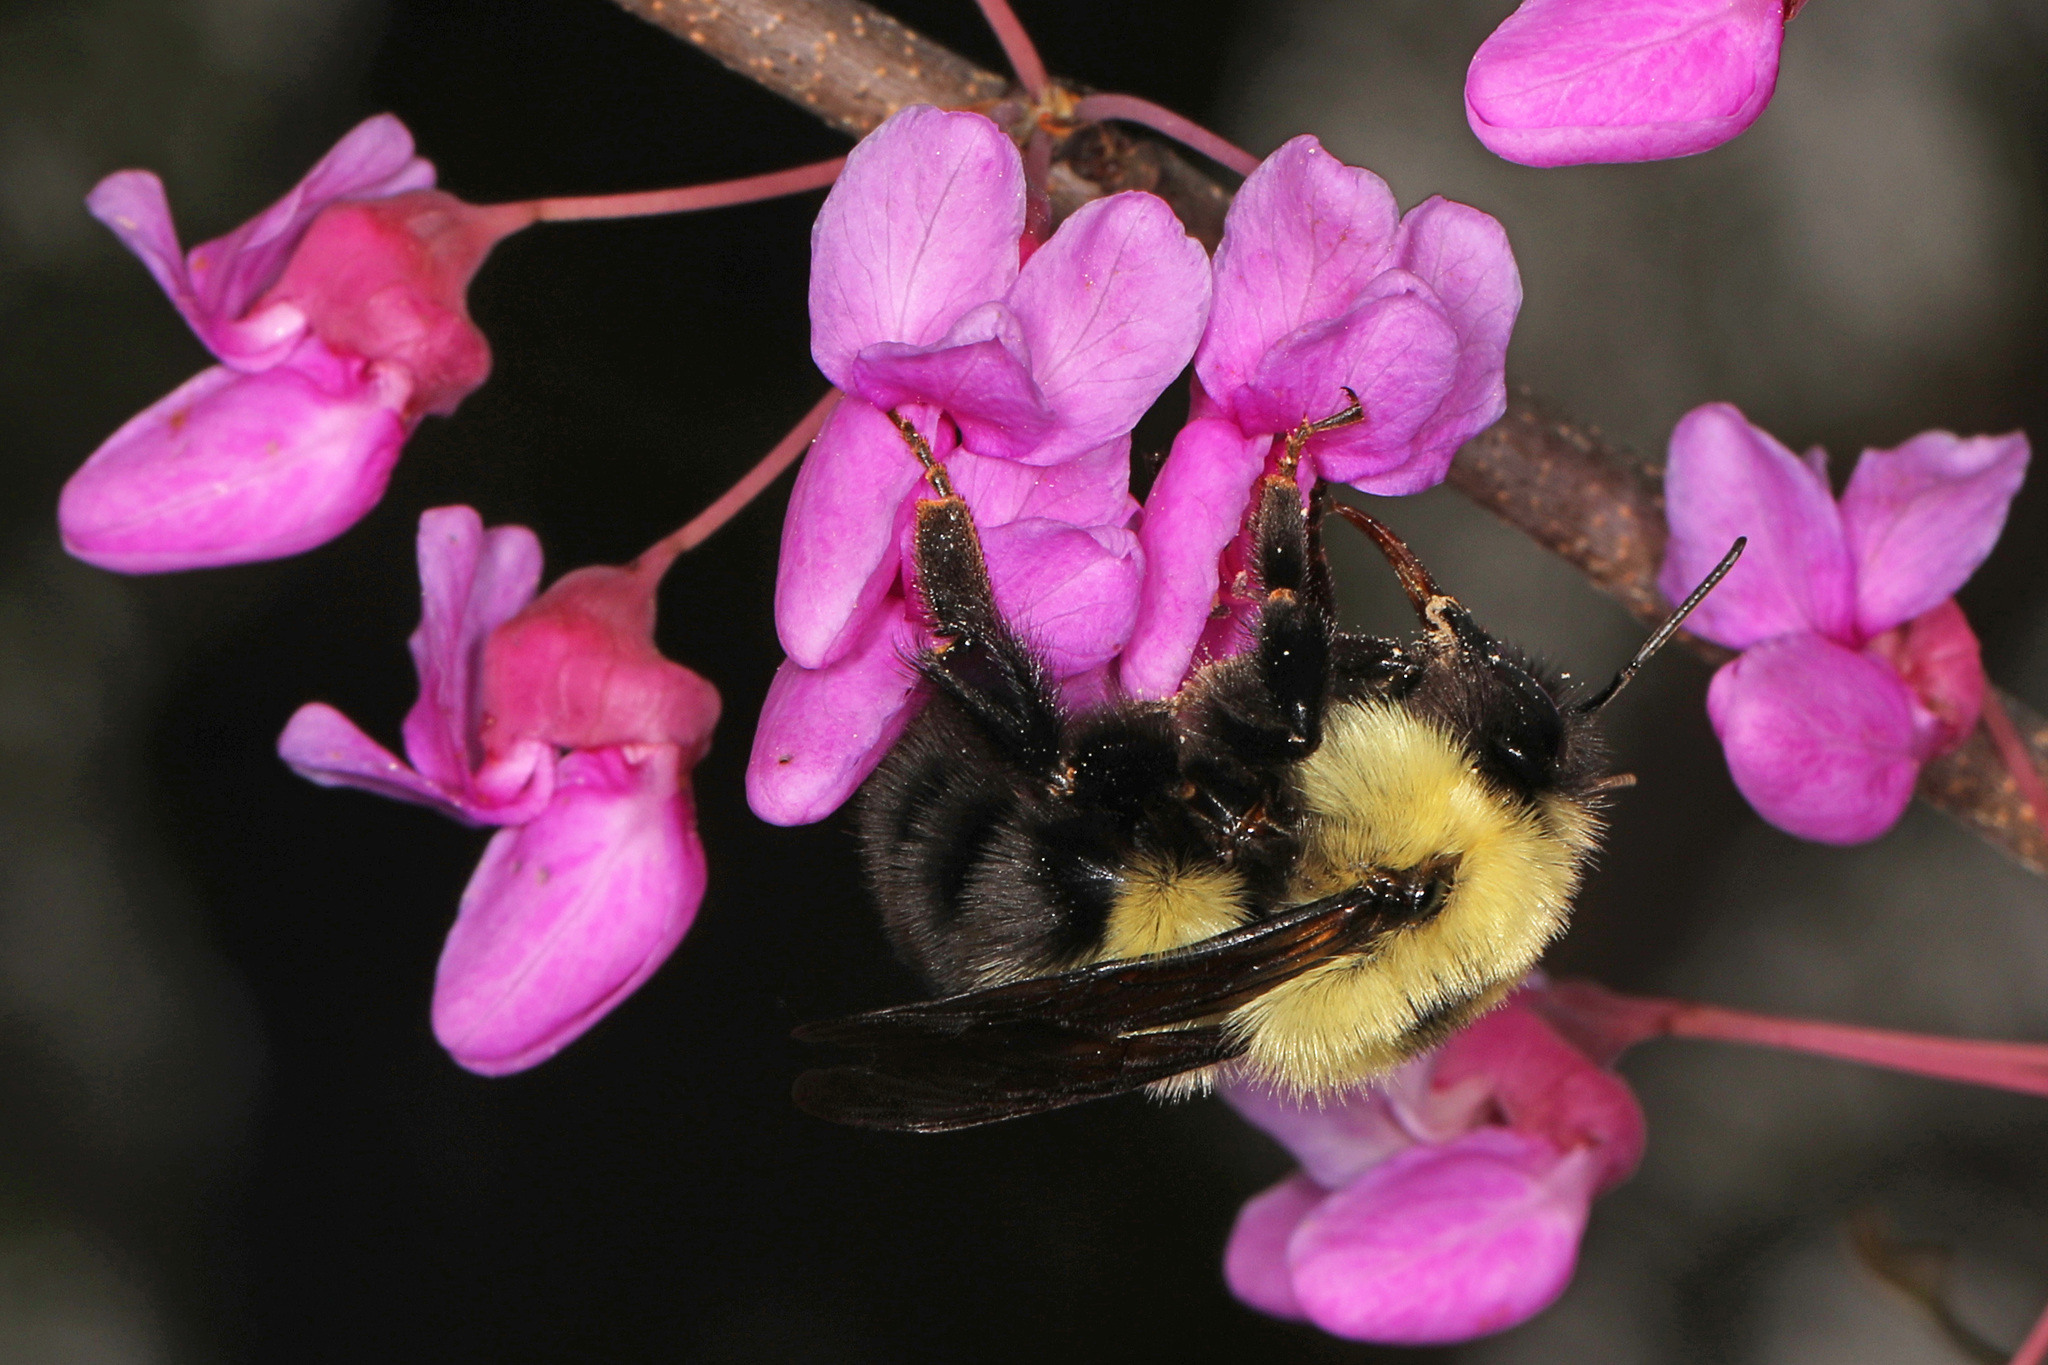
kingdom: Animalia
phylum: Arthropoda
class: Insecta
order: Hymenoptera
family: Apidae
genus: Bombus
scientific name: Bombus bimaculatus
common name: Two-spotted bumble bee
